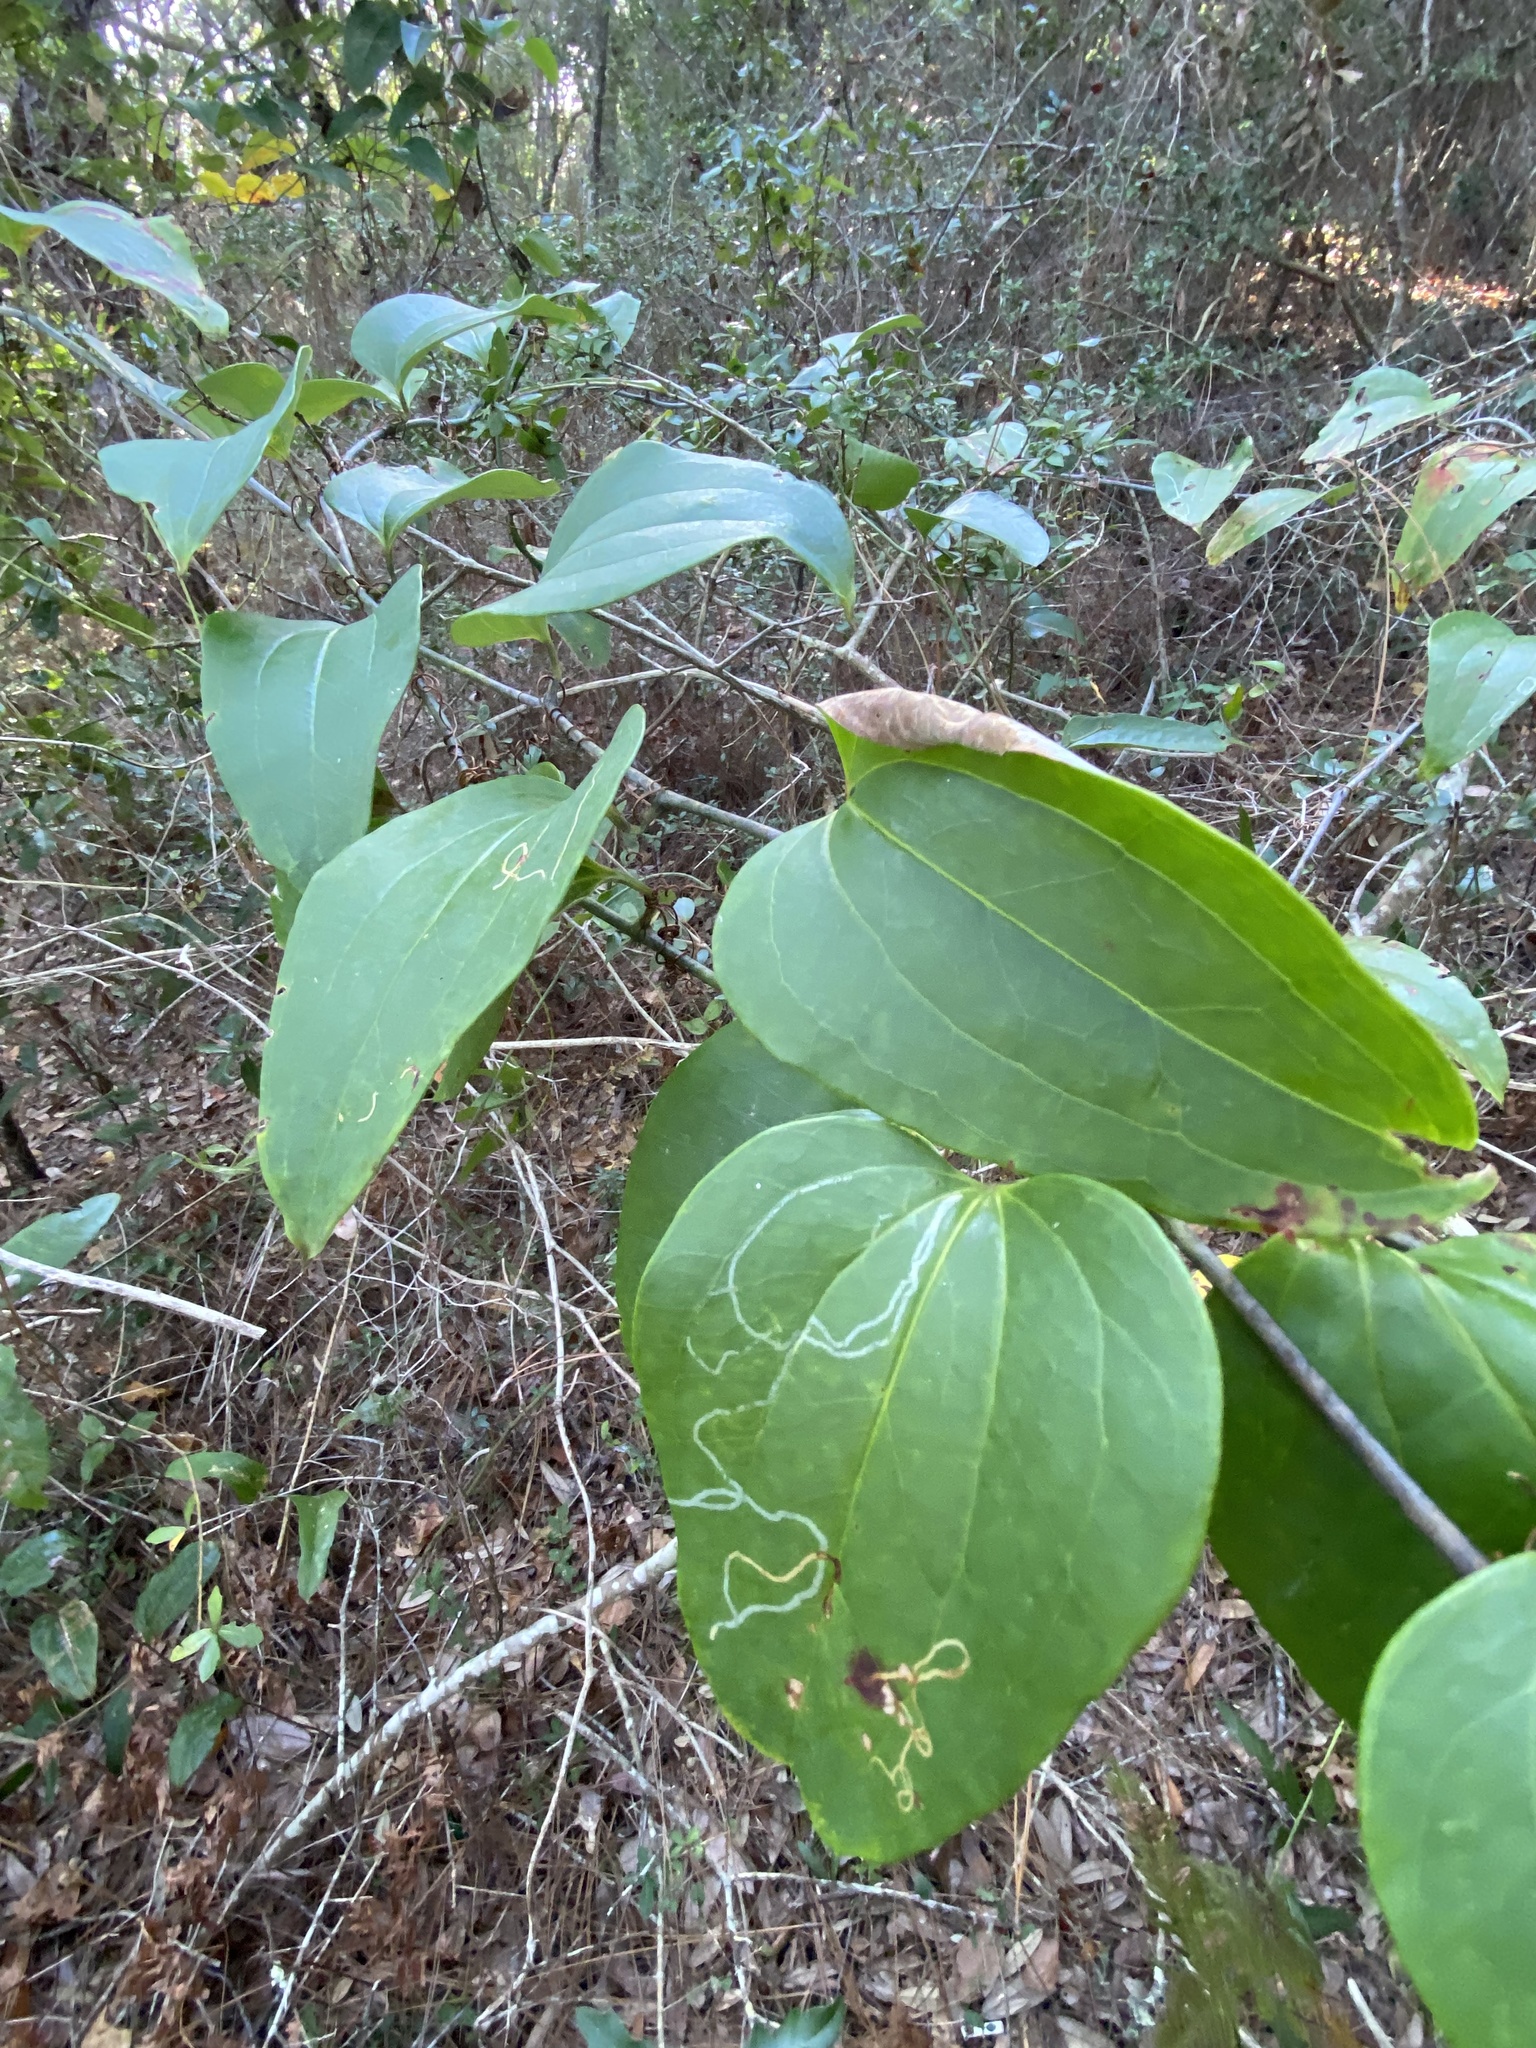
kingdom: Plantae
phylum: Tracheophyta
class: Liliopsida
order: Liliales
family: Smilacaceae
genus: Smilax
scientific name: Smilax glauca
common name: Cat greenbrier
